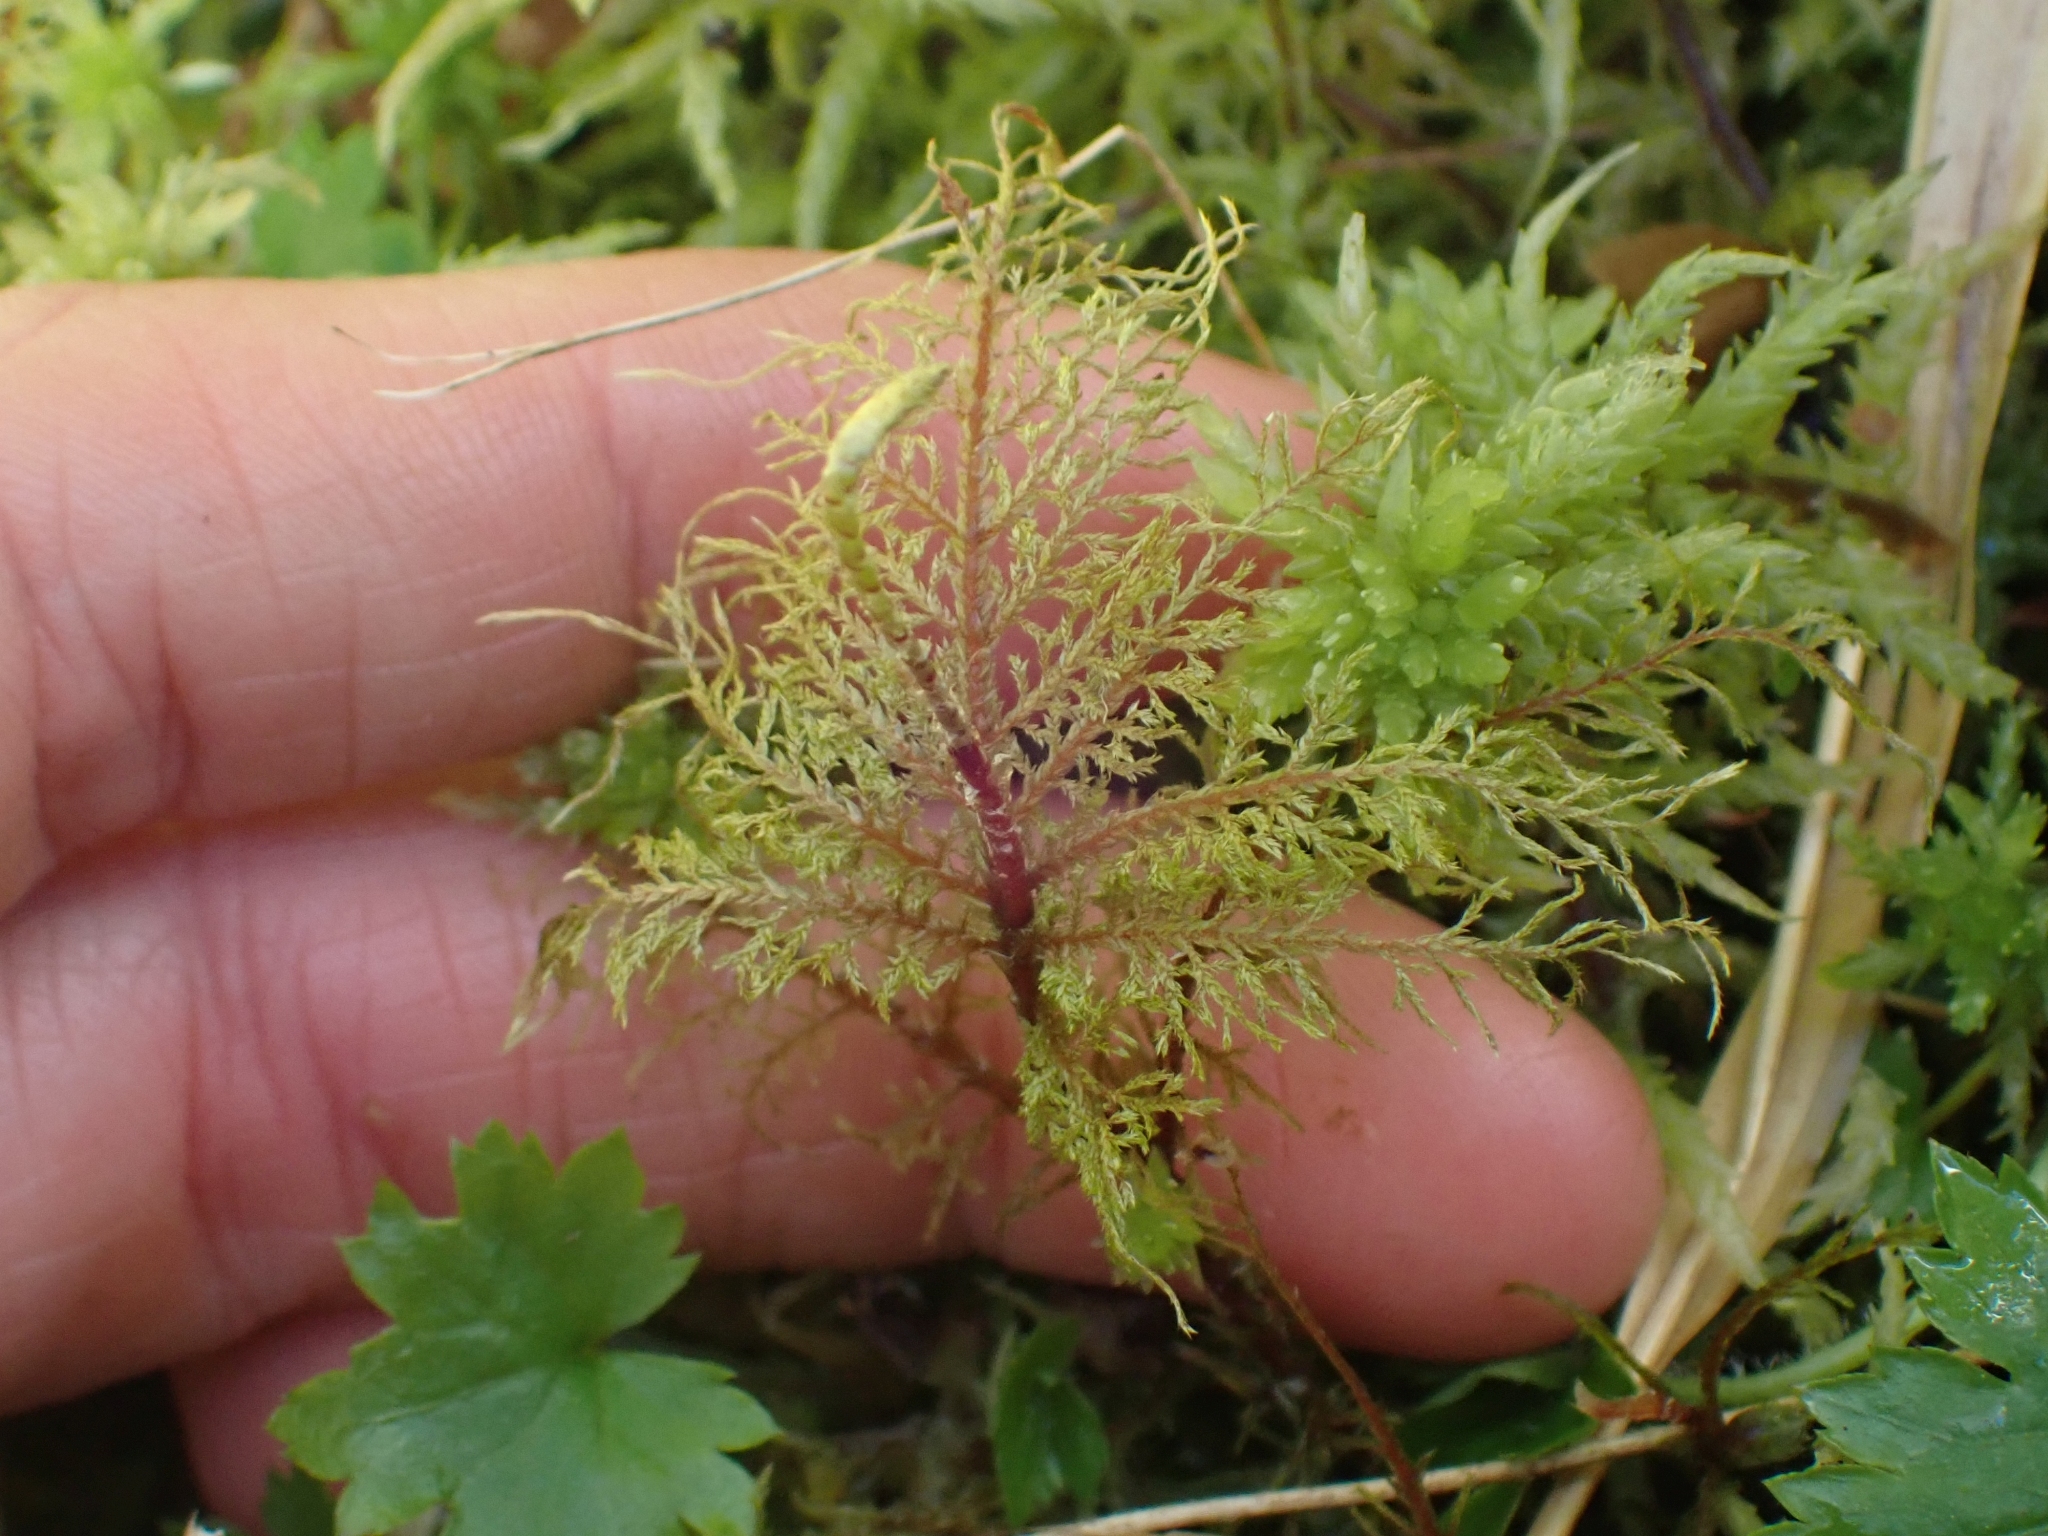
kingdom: Plantae
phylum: Bryophyta
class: Bryopsida
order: Hypnales
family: Hylocomiaceae
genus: Hylocomium
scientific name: Hylocomium splendens
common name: Stairstep moss
